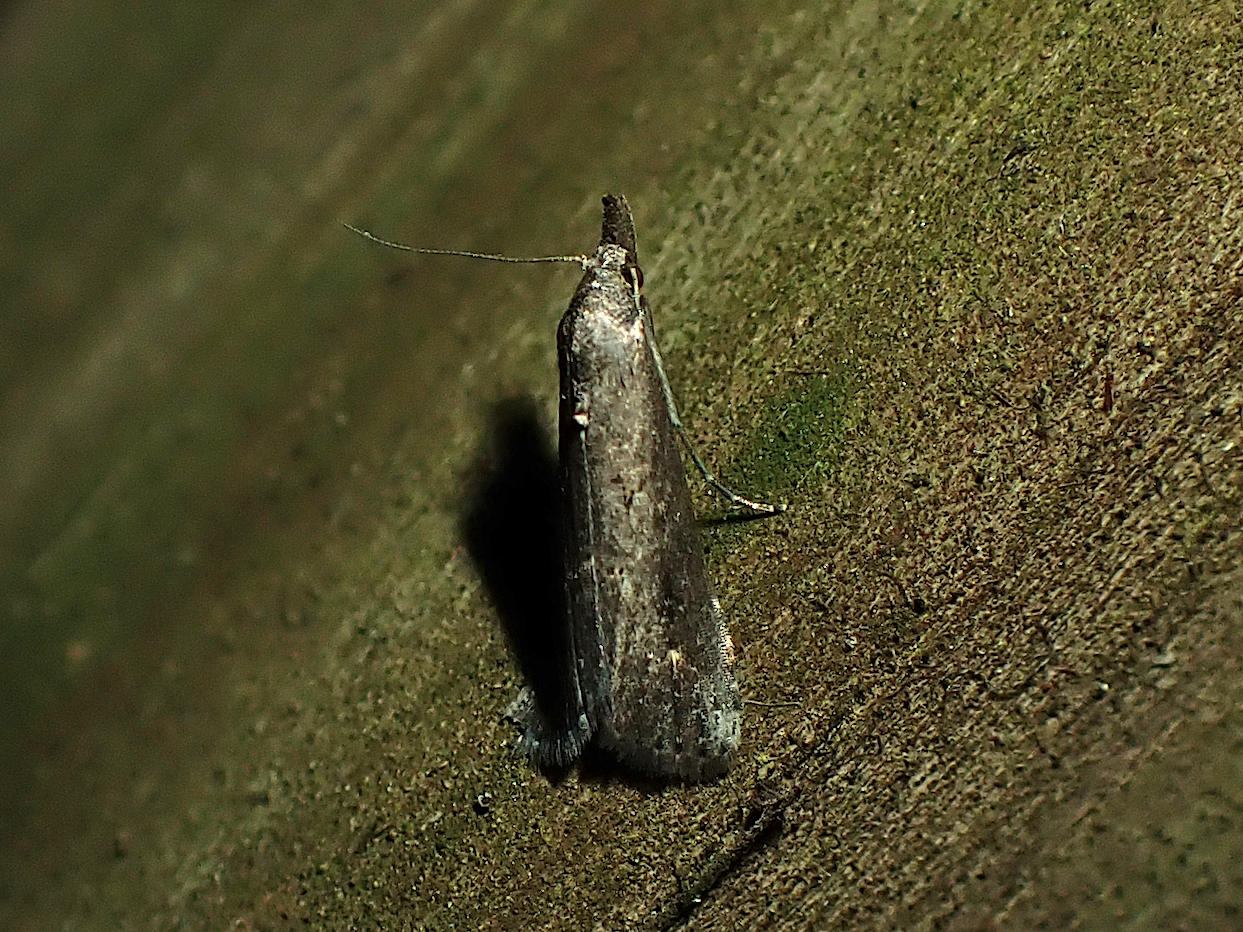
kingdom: Animalia
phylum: Arthropoda
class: Insecta
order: Lepidoptera
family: Erebidae
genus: Schrankia
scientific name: Schrankia costaestrigalis
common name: Pinion-streaked snout
